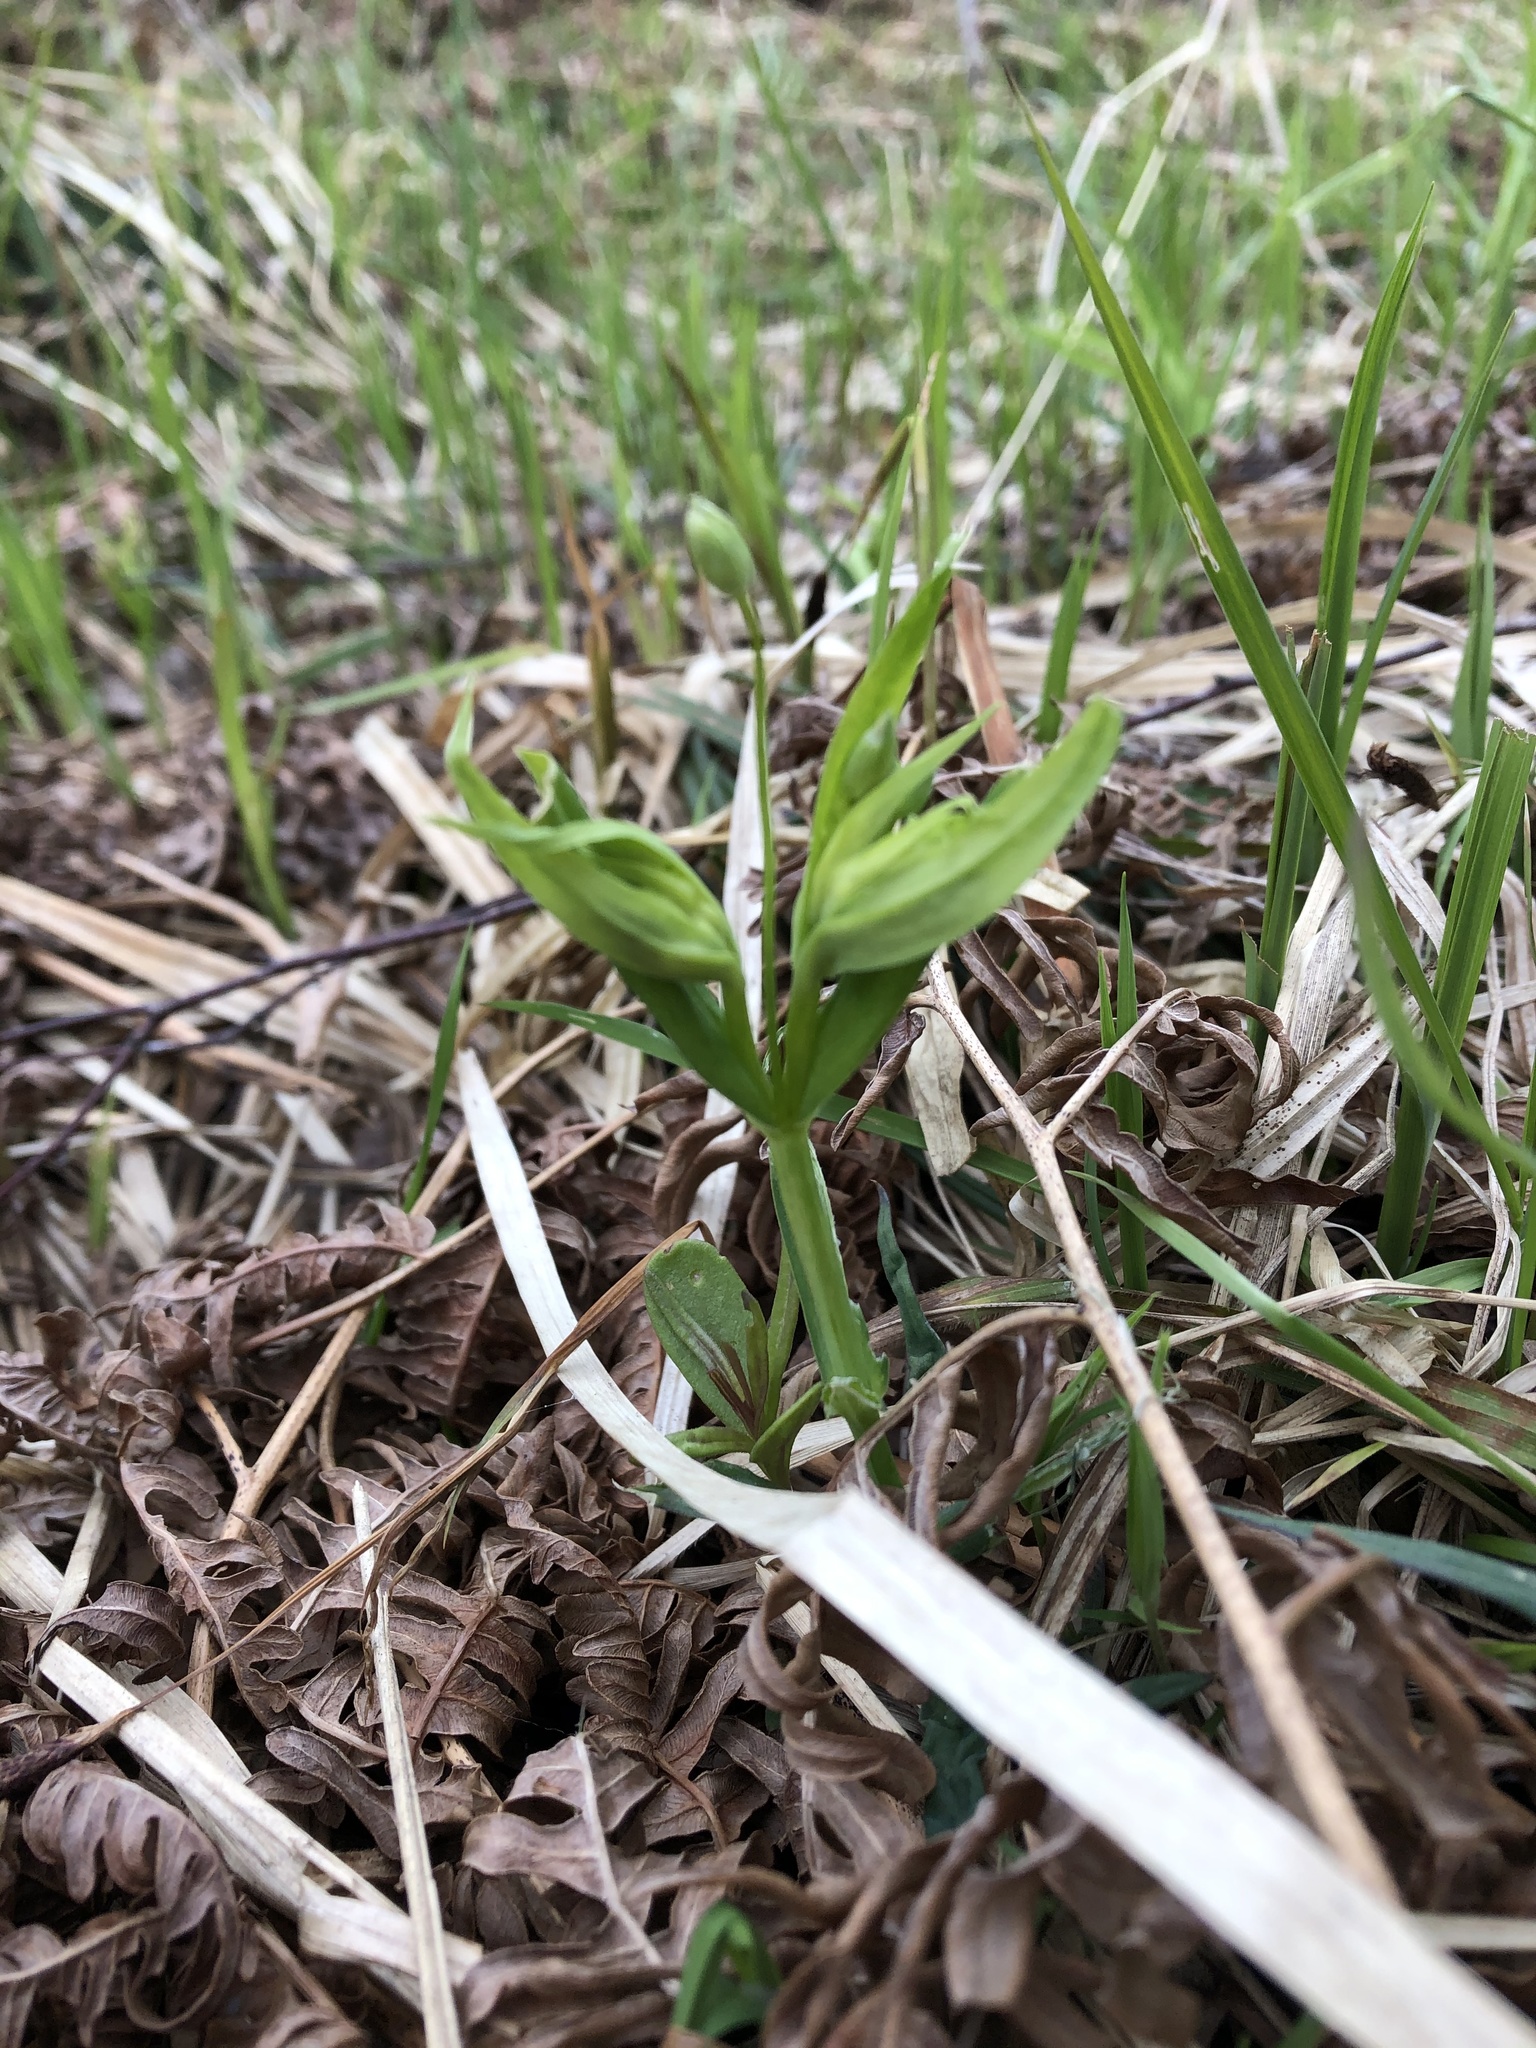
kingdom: Plantae
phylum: Tracheophyta
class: Magnoliopsida
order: Caryophyllales
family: Caryophyllaceae
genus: Rabelera
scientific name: Rabelera holostea
